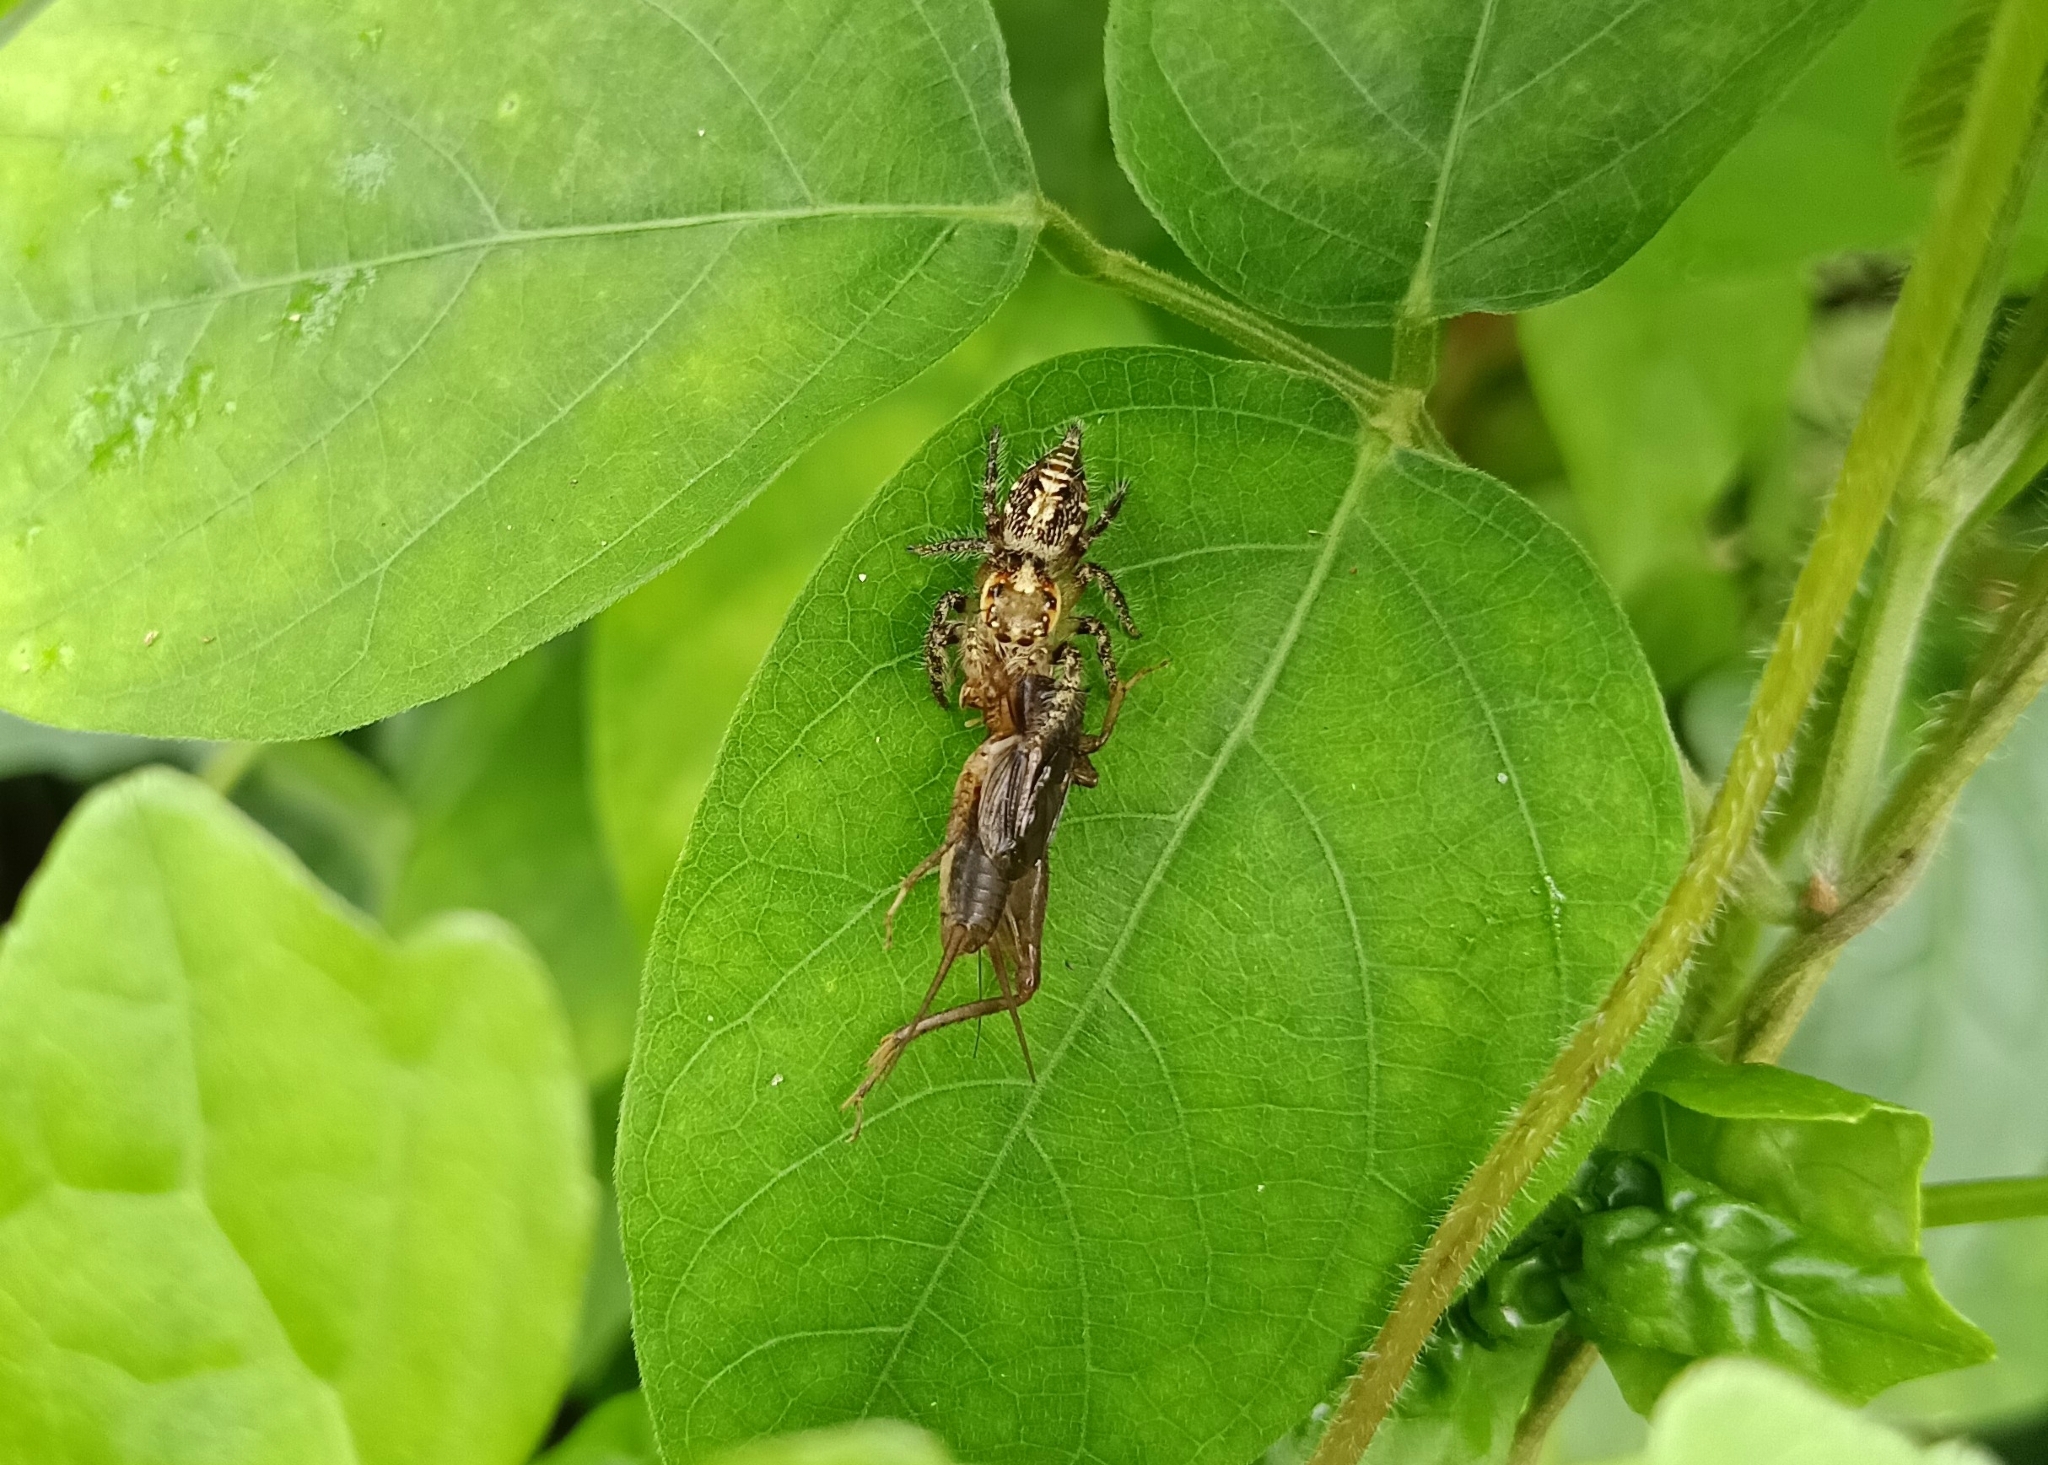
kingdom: Animalia
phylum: Arthropoda
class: Arachnida
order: Araneae
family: Salticidae
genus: Hyllus
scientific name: Hyllus semicupreus
